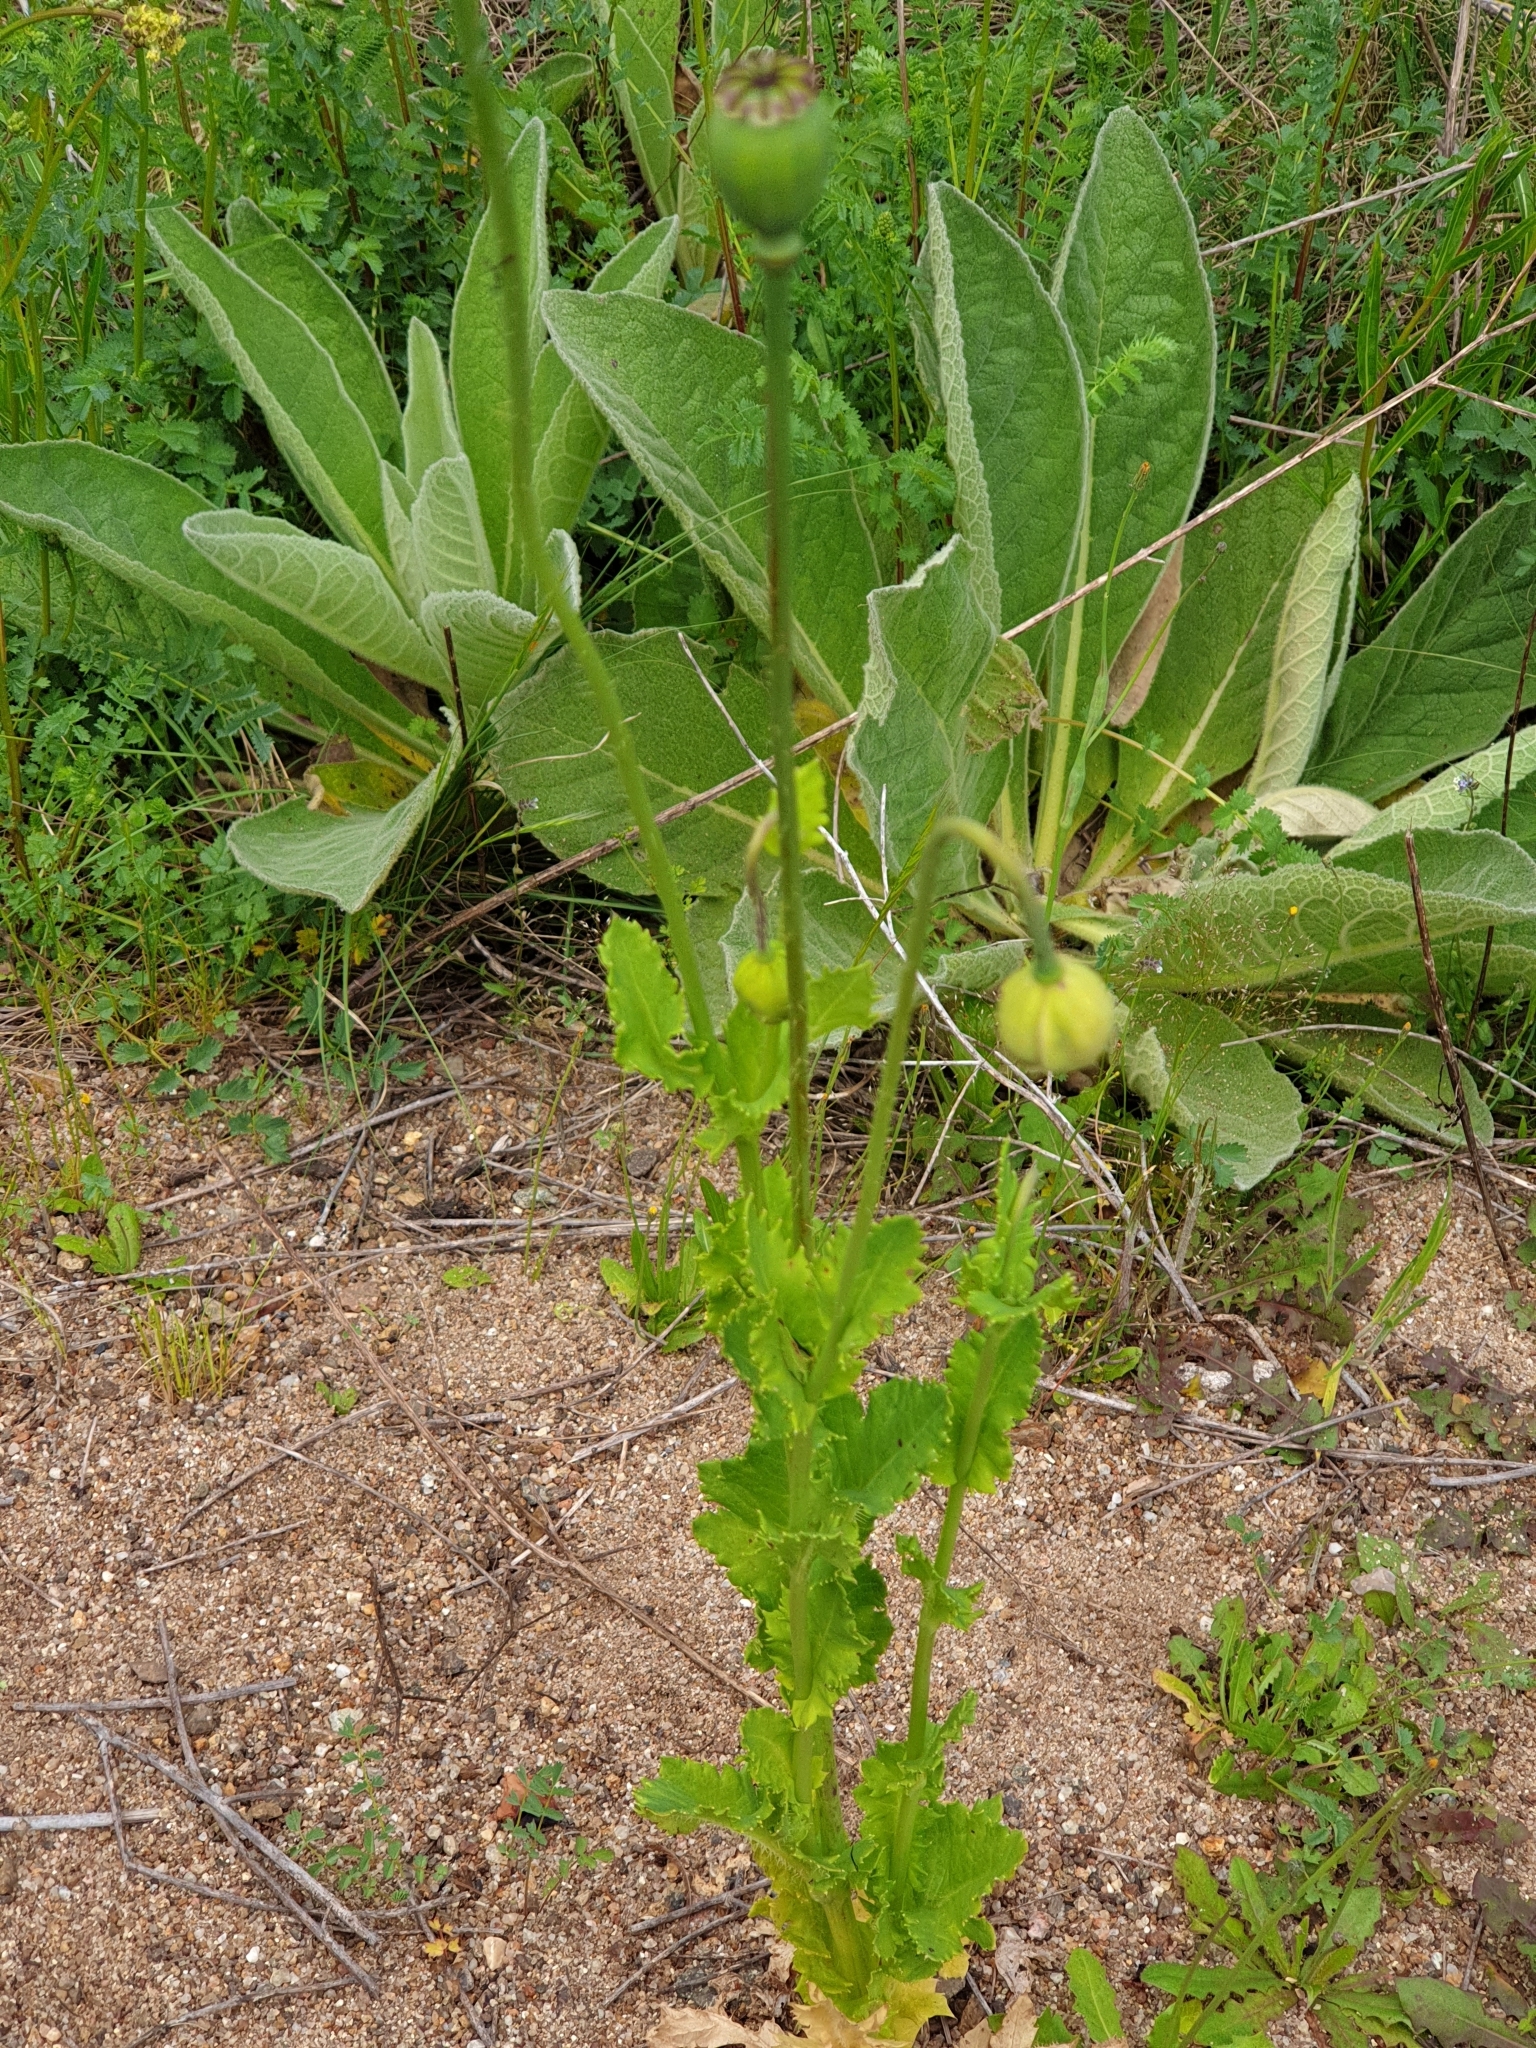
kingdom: Plantae
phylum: Tracheophyta
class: Magnoliopsida
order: Ranunculales
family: Papaveraceae
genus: Papaver
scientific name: Papaver somniferum
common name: Opium poppy
